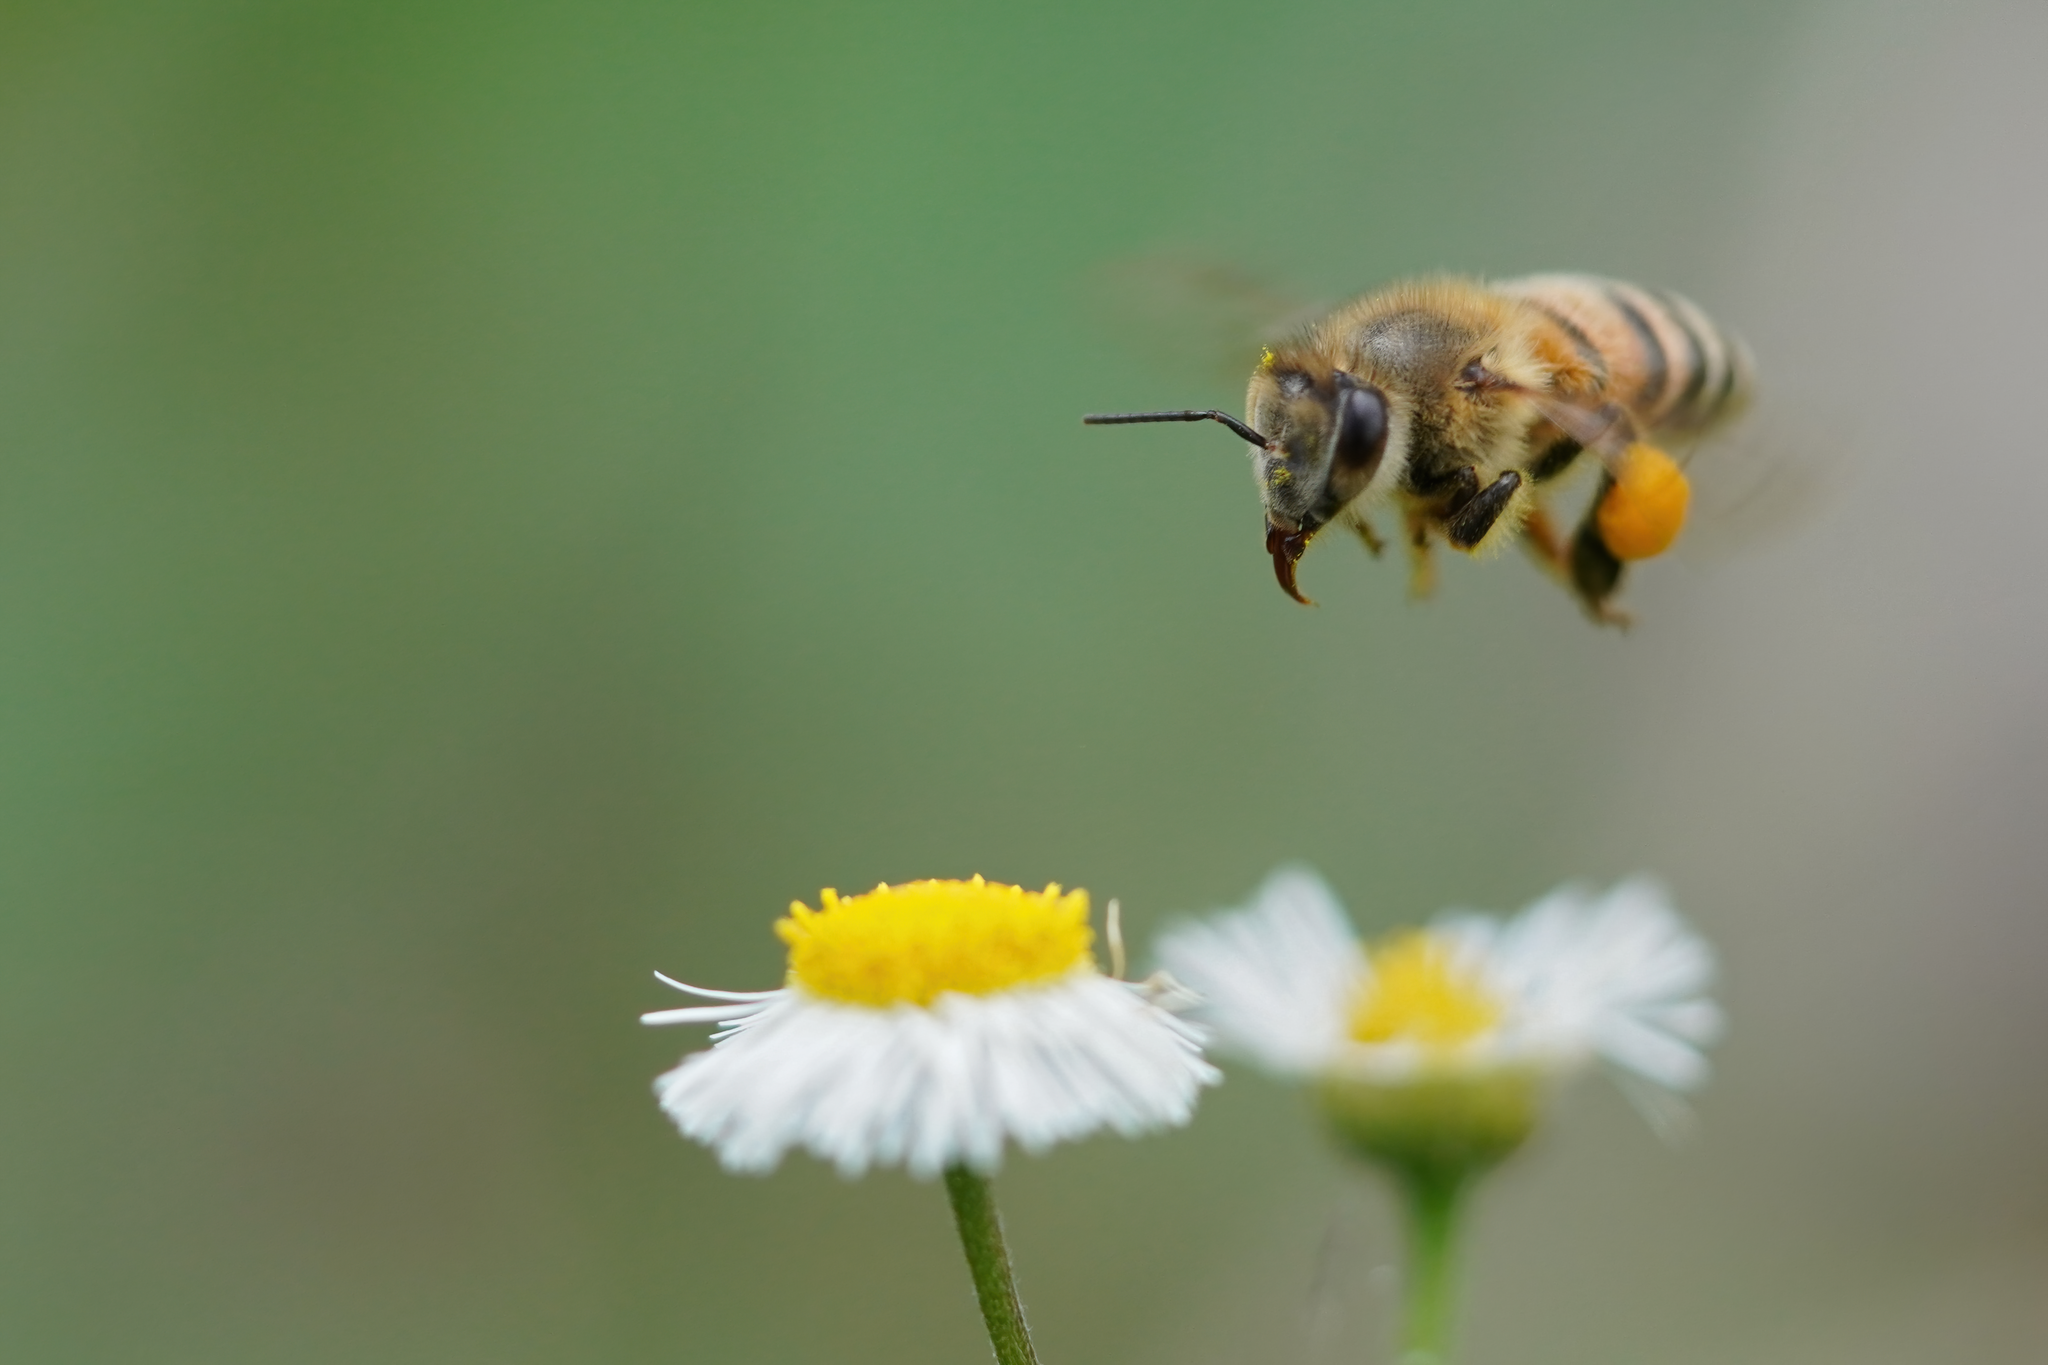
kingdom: Animalia
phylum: Arthropoda
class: Insecta
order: Hymenoptera
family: Apidae
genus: Apis
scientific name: Apis mellifera
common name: Honey bee
